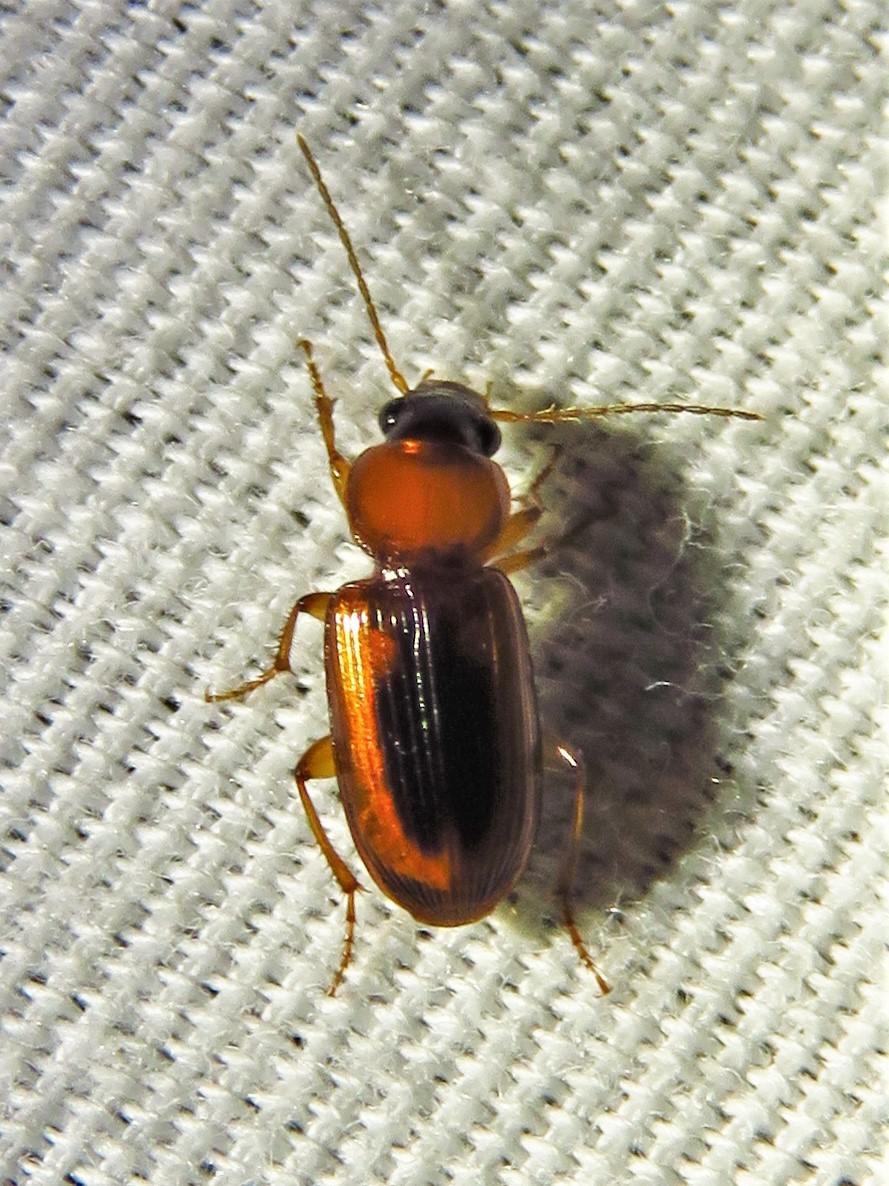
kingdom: Animalia
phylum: Arthropoda
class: Insecta
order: Coleoptera
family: Carabidae
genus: Stenolophus
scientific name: Stenolophus dissimilis
